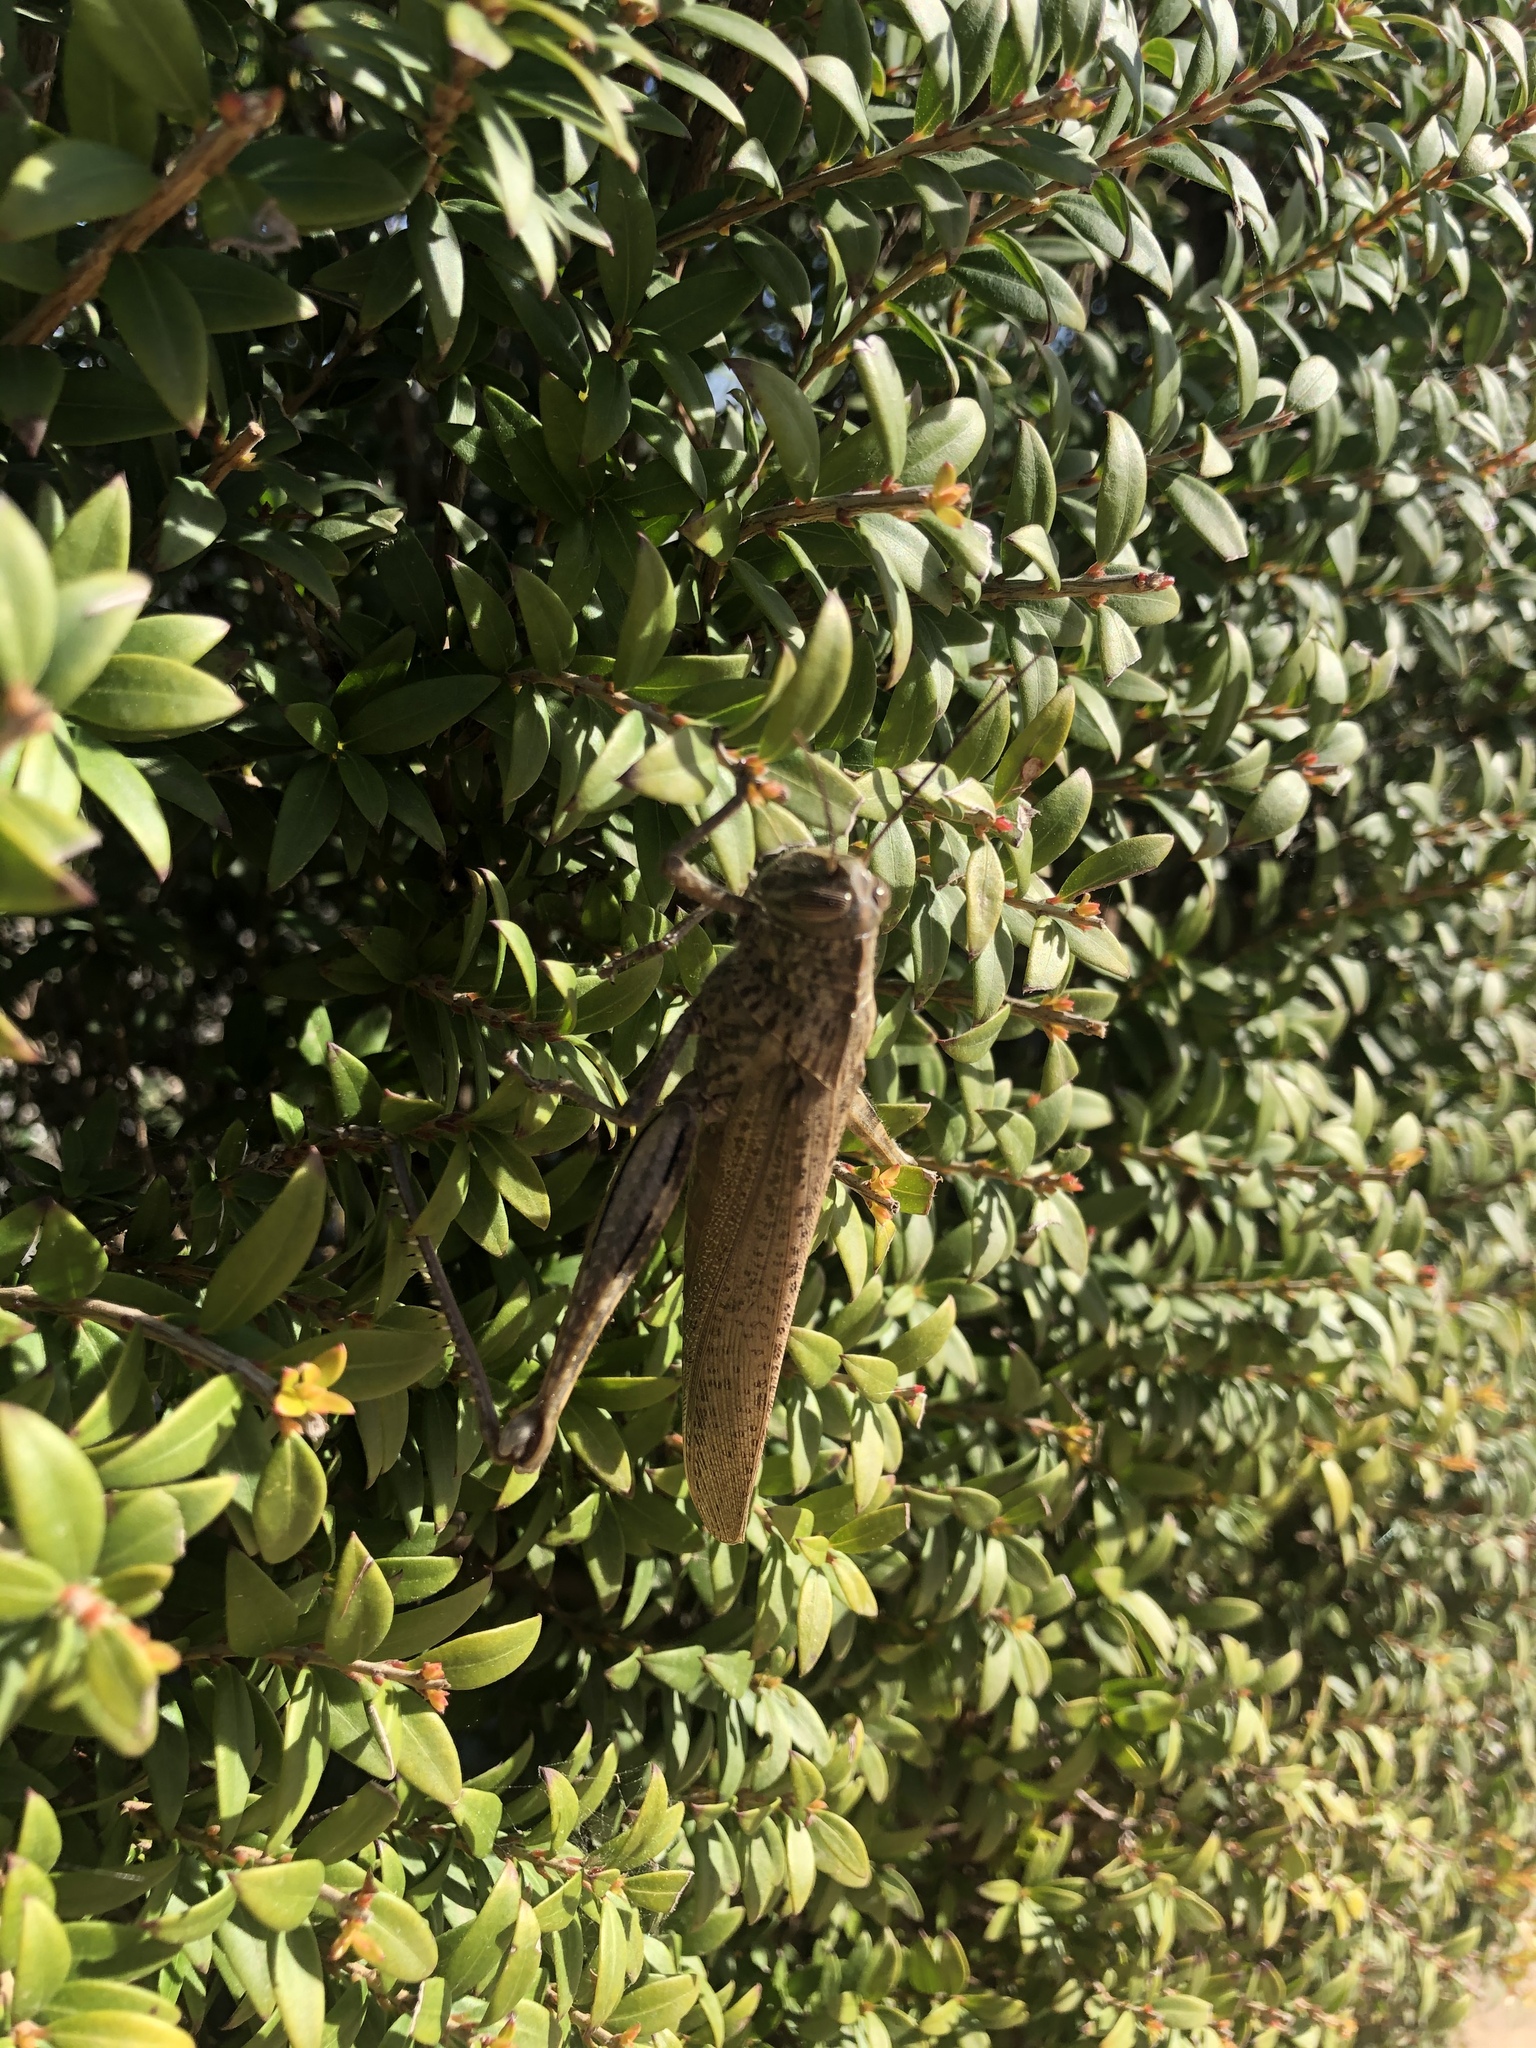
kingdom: Animalia
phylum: Arthropoda
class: Insecta
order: Orthoptera
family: Acrididae
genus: Anacridium
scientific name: Anacridium aegyptium
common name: Egyptian grasshopper
